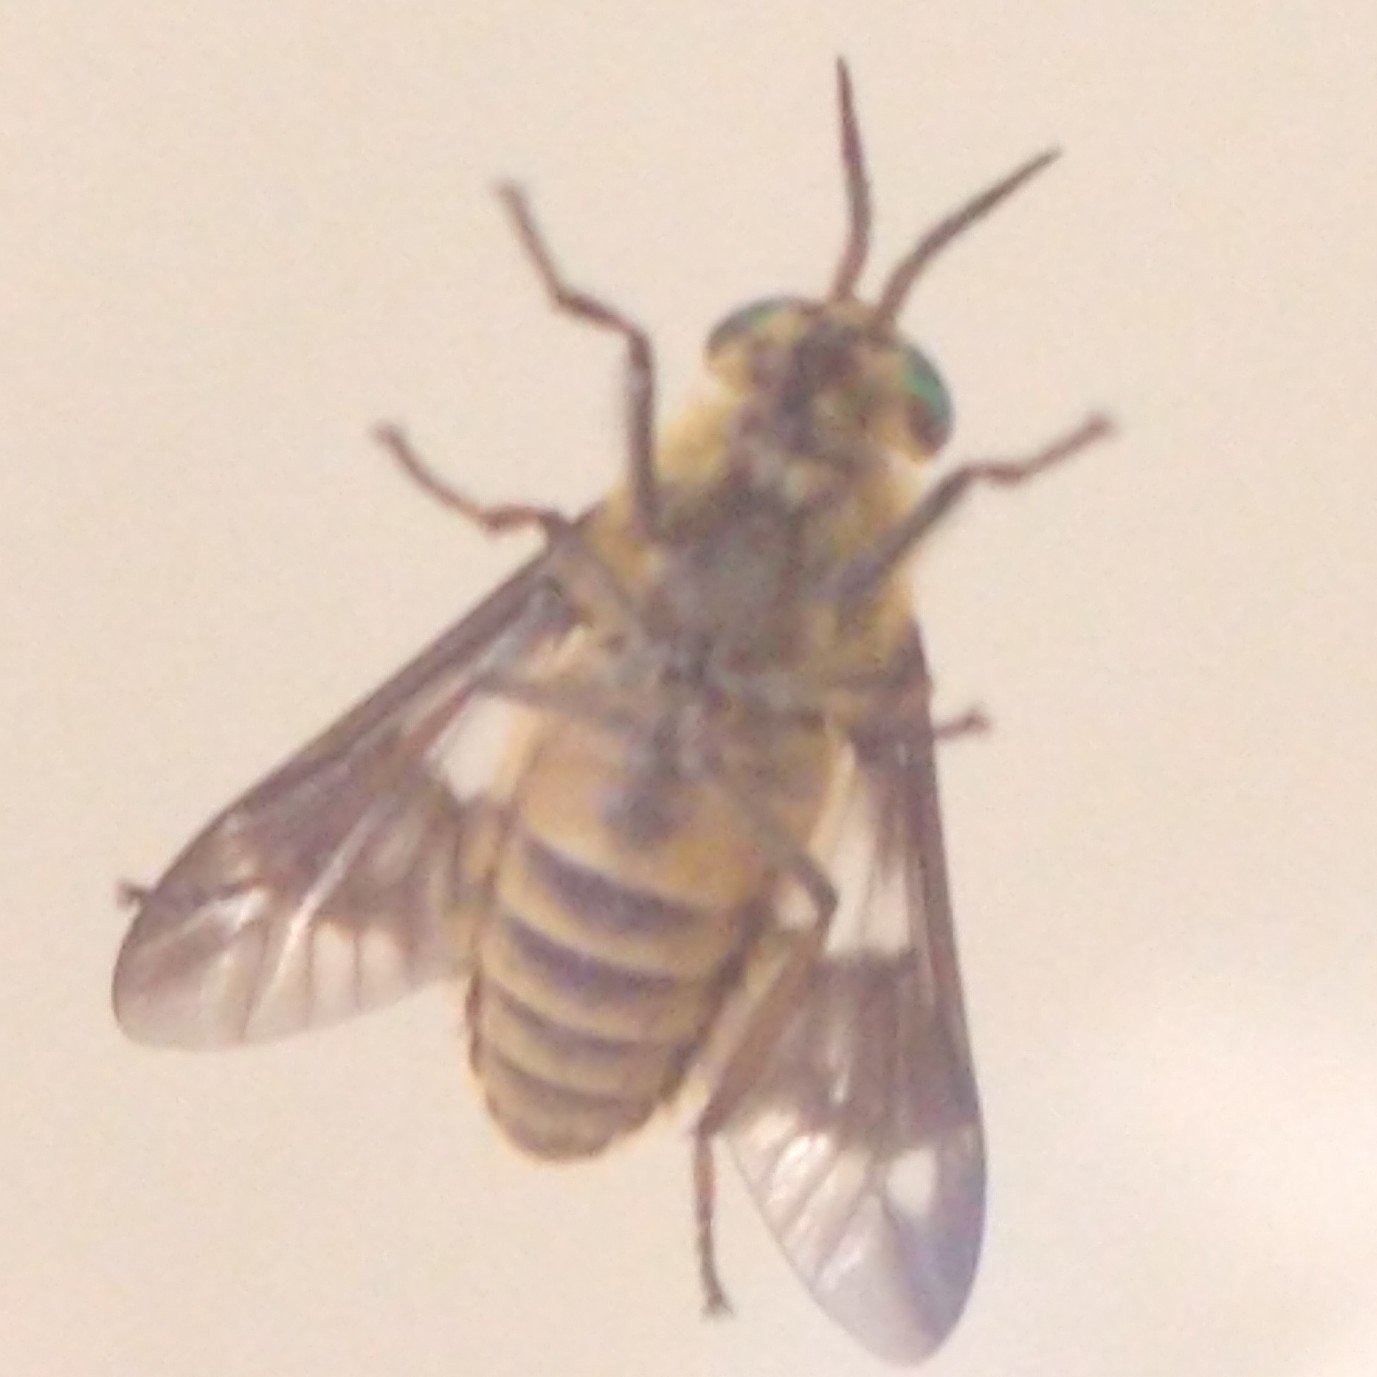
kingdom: Animalia
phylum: Arthropoda
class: Insecta
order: Diptera
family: Tabanidae
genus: Chrysops
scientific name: Chrysops relictus
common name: Twin-lobed deerfly
